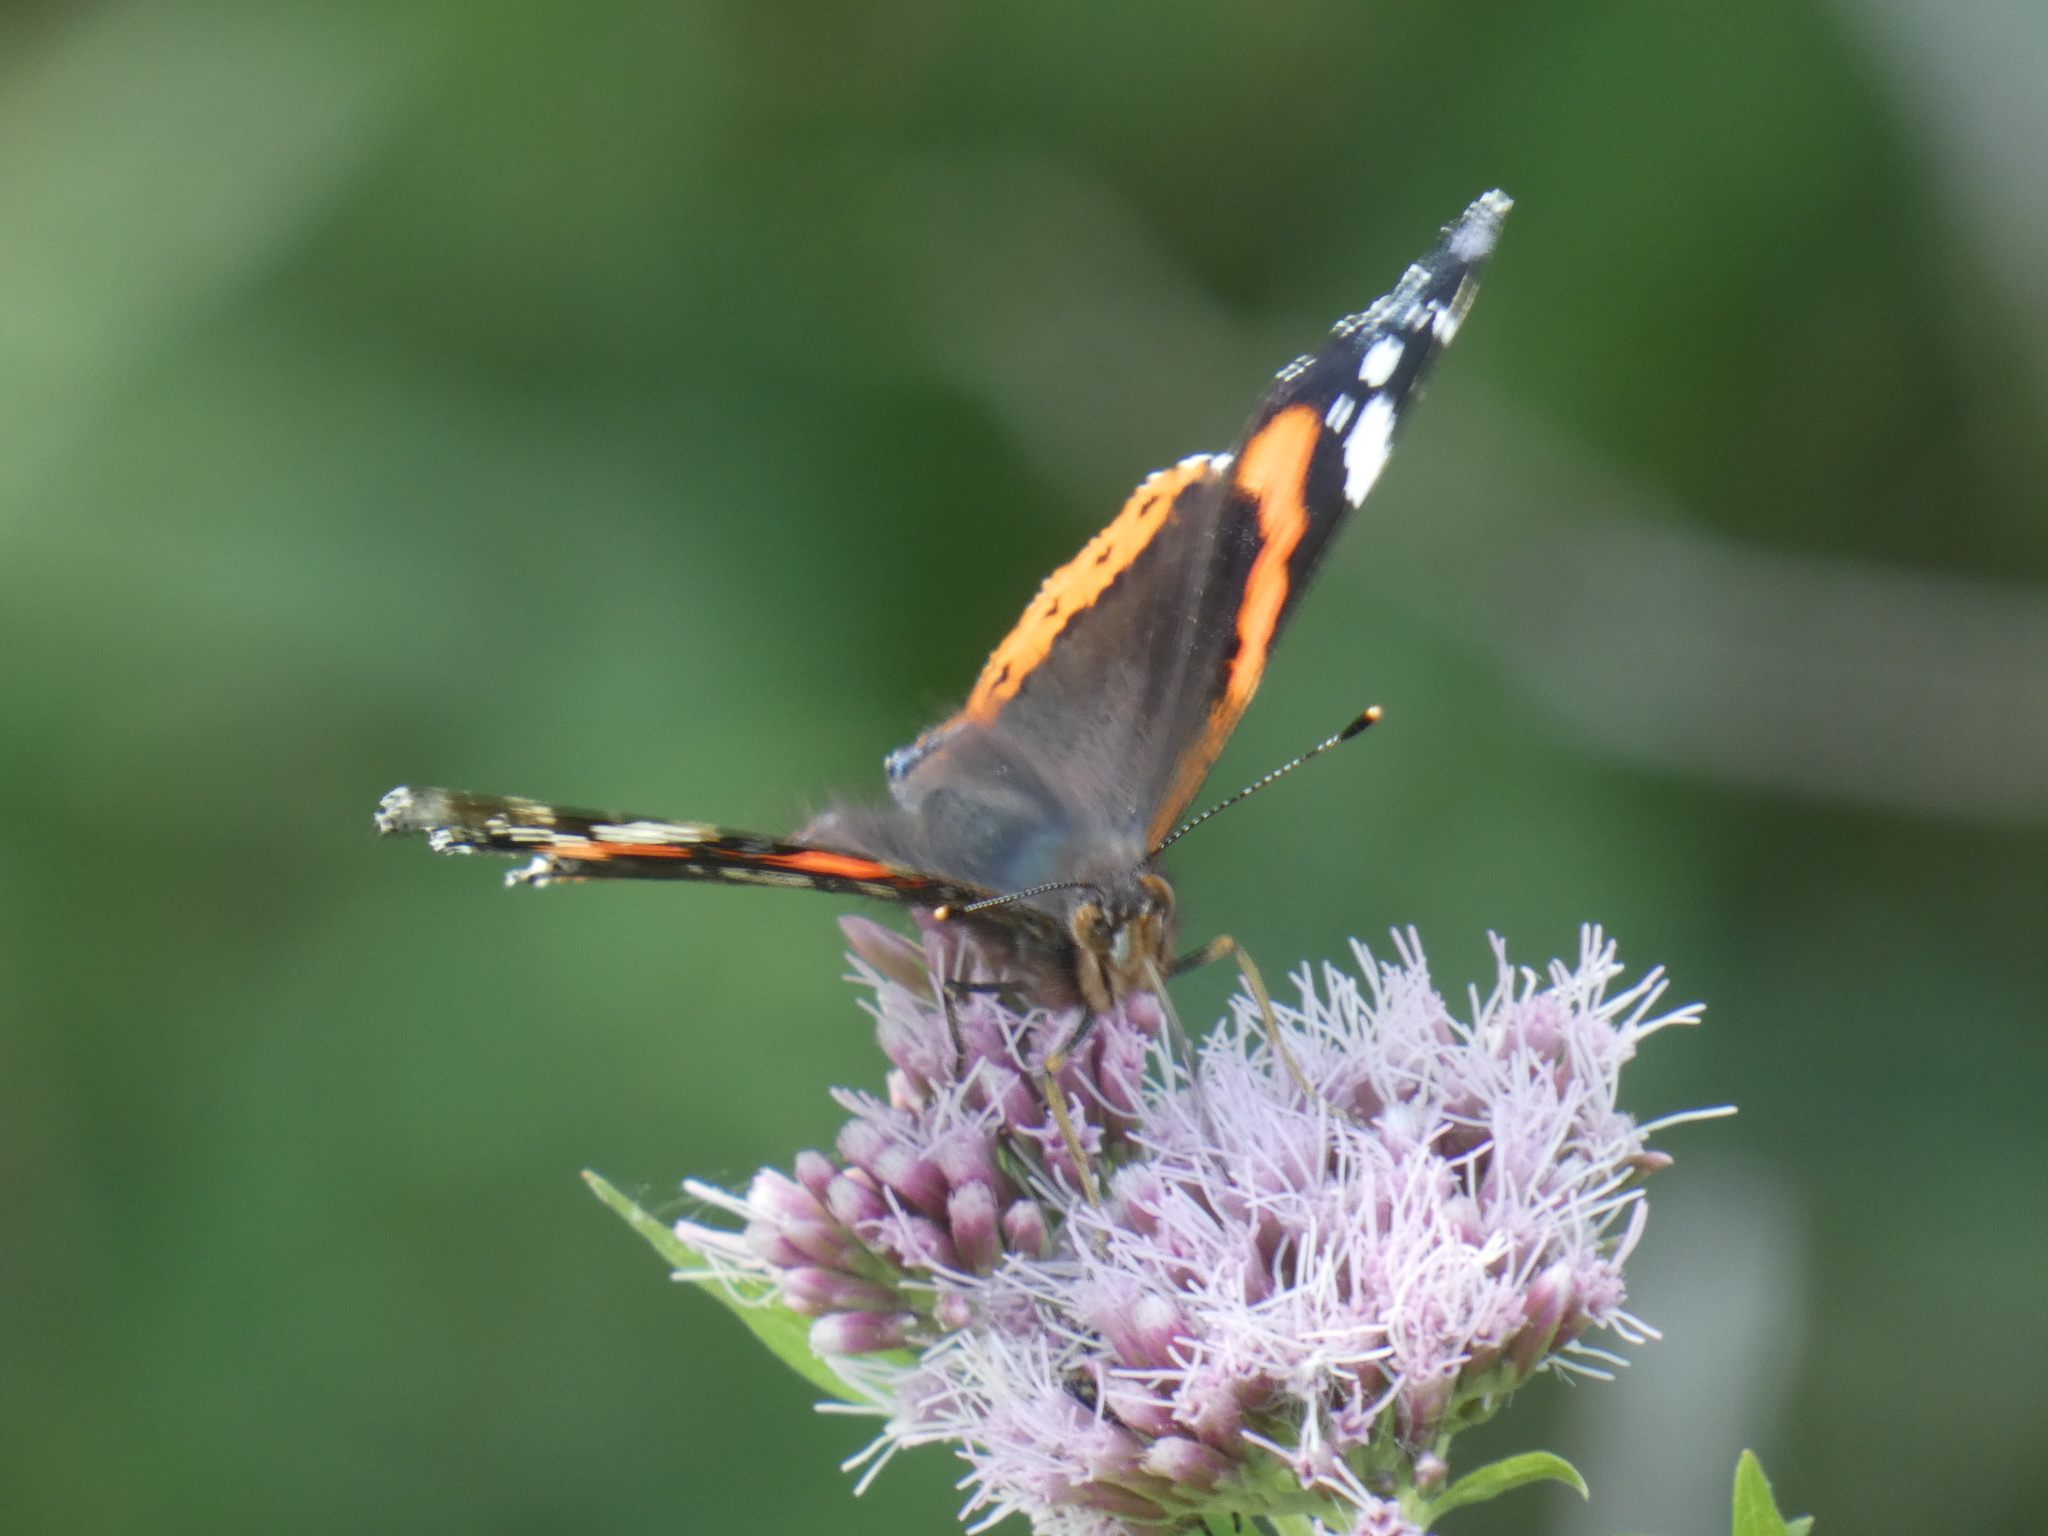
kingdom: Animalia
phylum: Arthropoda
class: Insecta
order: Lepidoptera
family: Nymphalidae
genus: Vanessa
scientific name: Vanessa atalanta
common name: Red admiral
